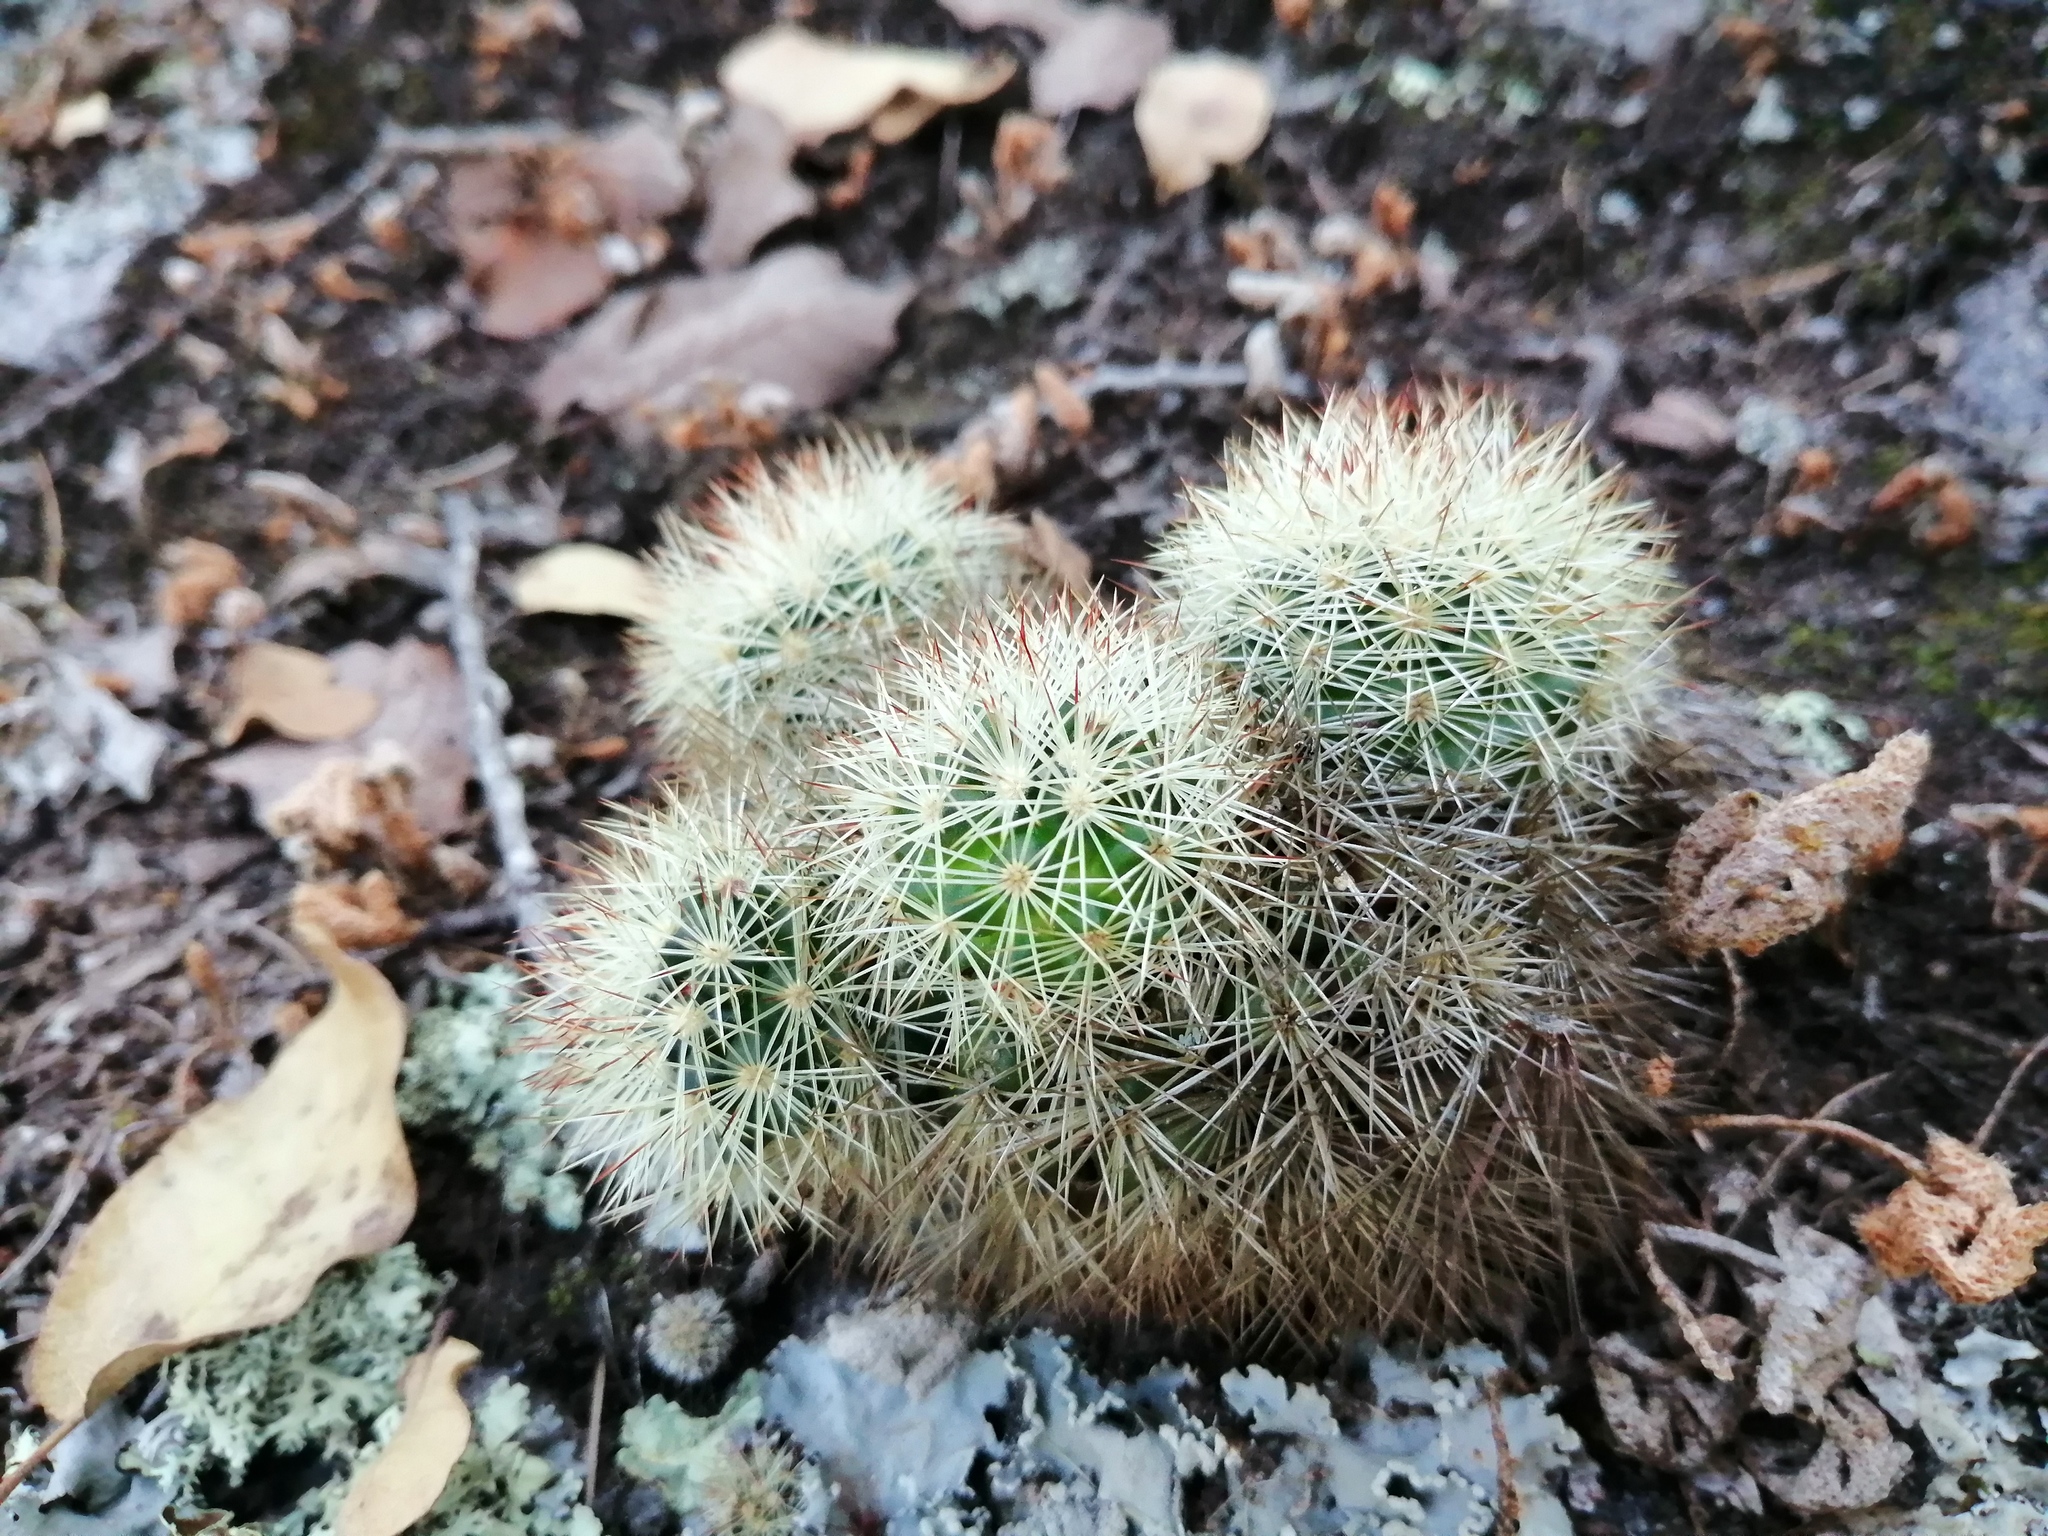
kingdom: Plantae
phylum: Tracheophyta
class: Magnoliopsida
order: Caryophyllales
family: Cactaceae
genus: Mammillaria
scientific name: Mammillaria densispina
